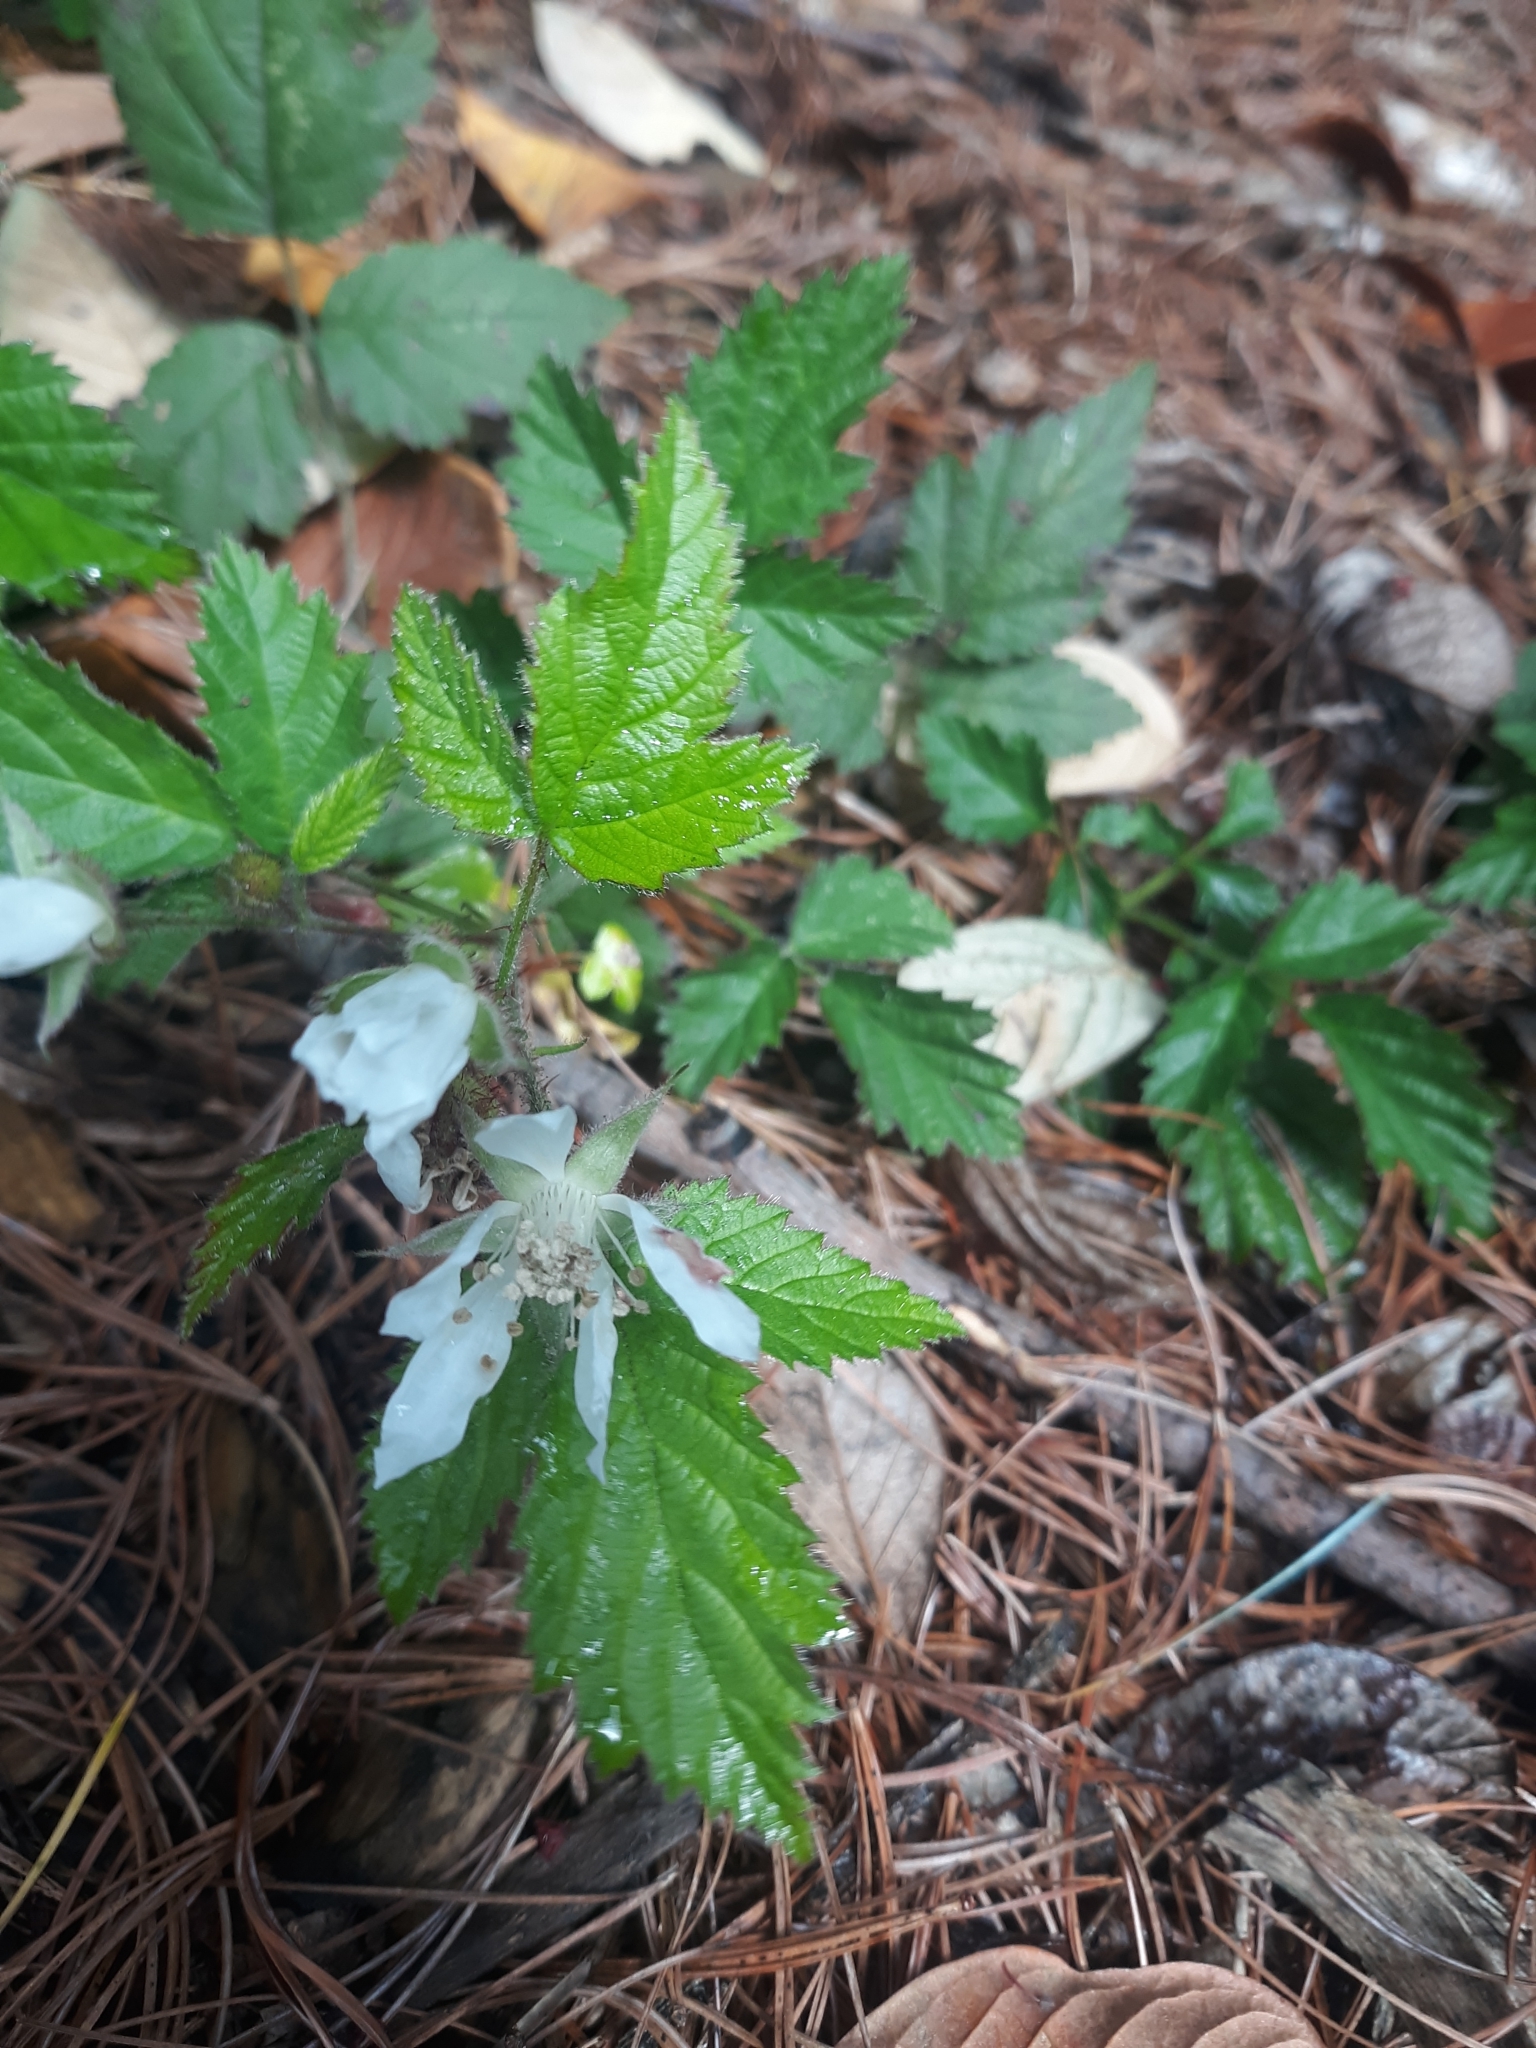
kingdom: Plantae
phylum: Tracheophyta
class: Magnoliopsida
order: Rosales
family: Rosaceae
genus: Rubus
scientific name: Rubus ursinus
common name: Pacific blackberry
